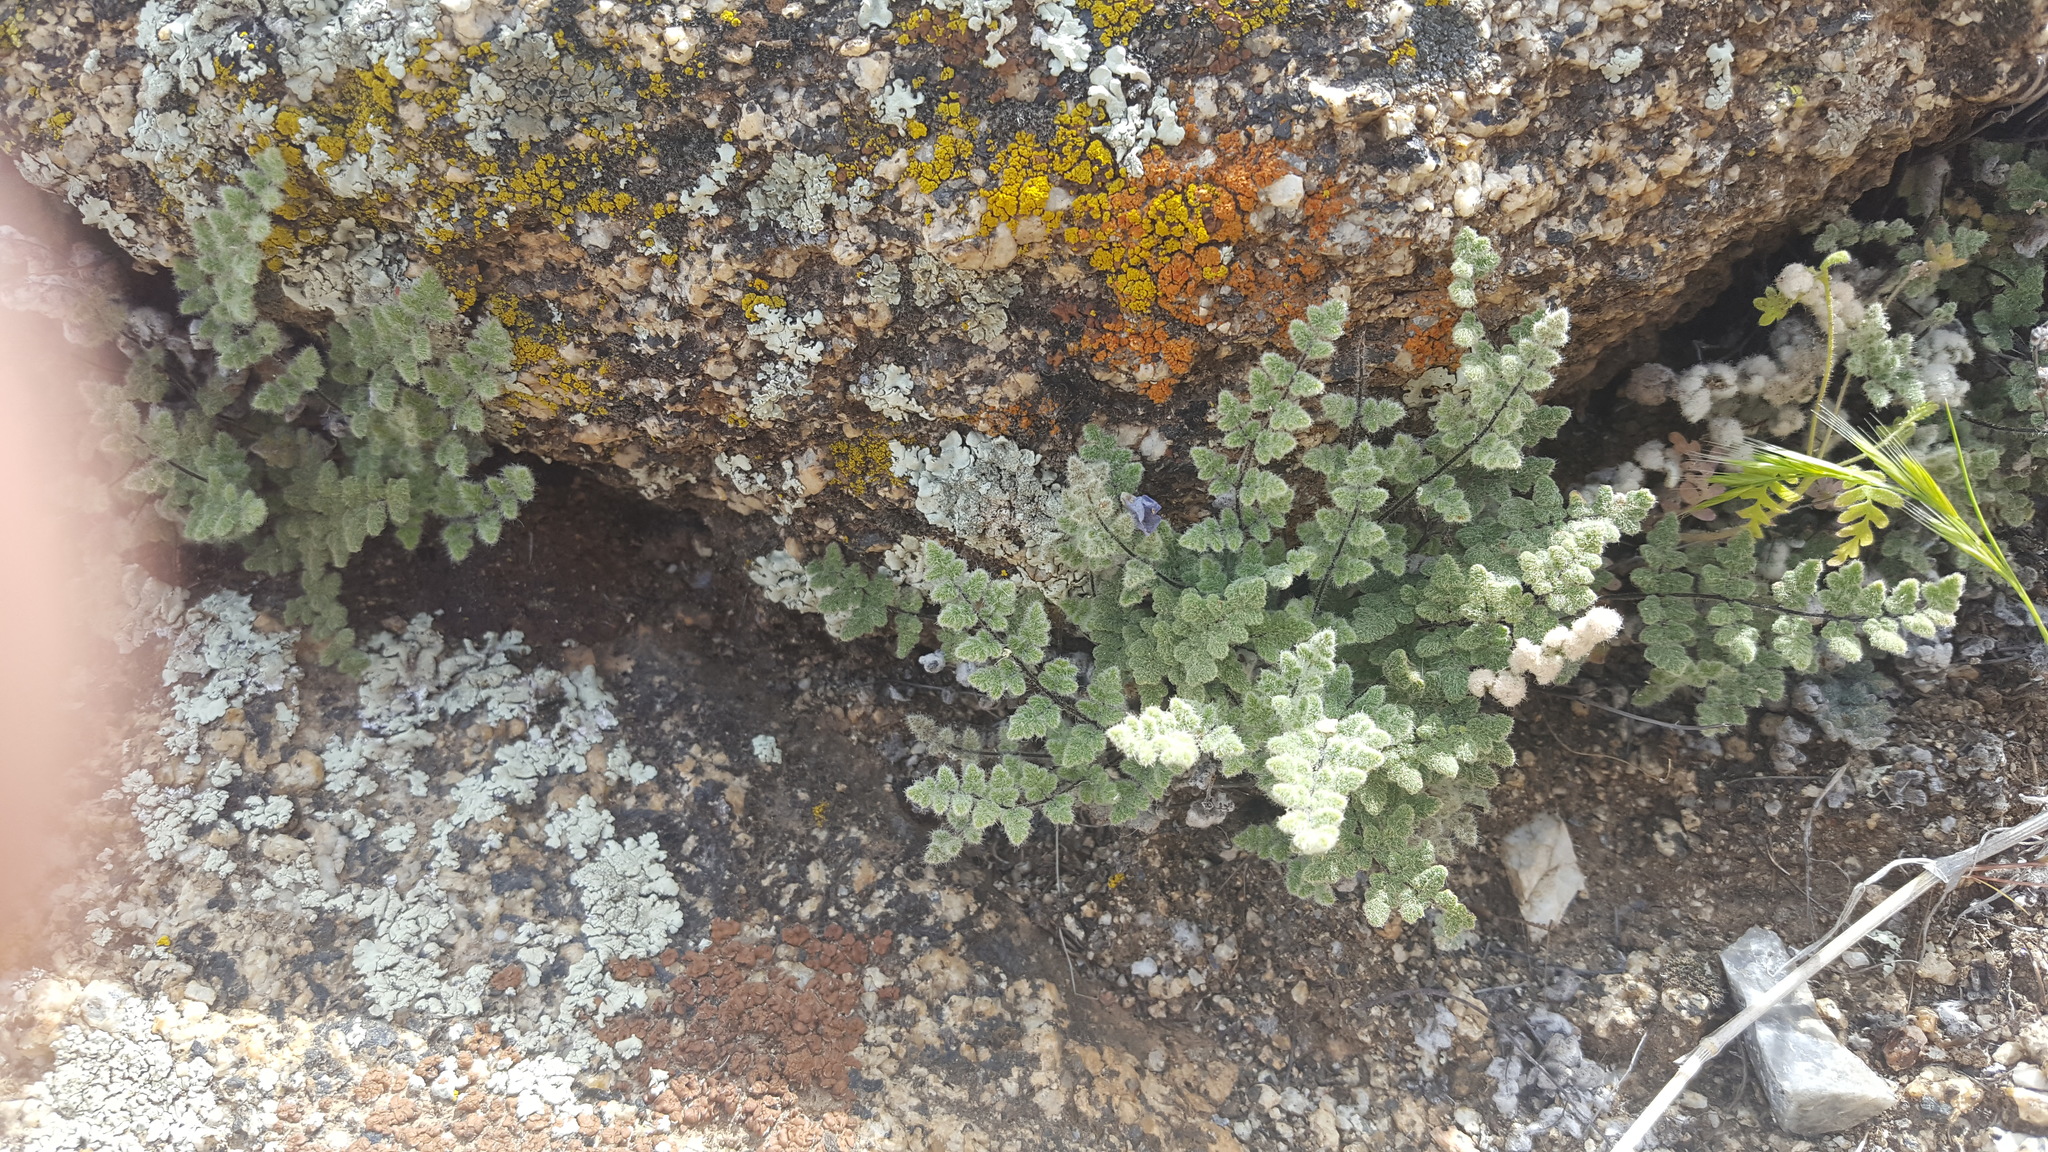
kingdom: Plantae
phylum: Tracheophyta
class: Polypodiopsida
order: Polypodiales
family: Pteridaceae
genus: Myriopteris
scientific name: Myriopteris parryi
